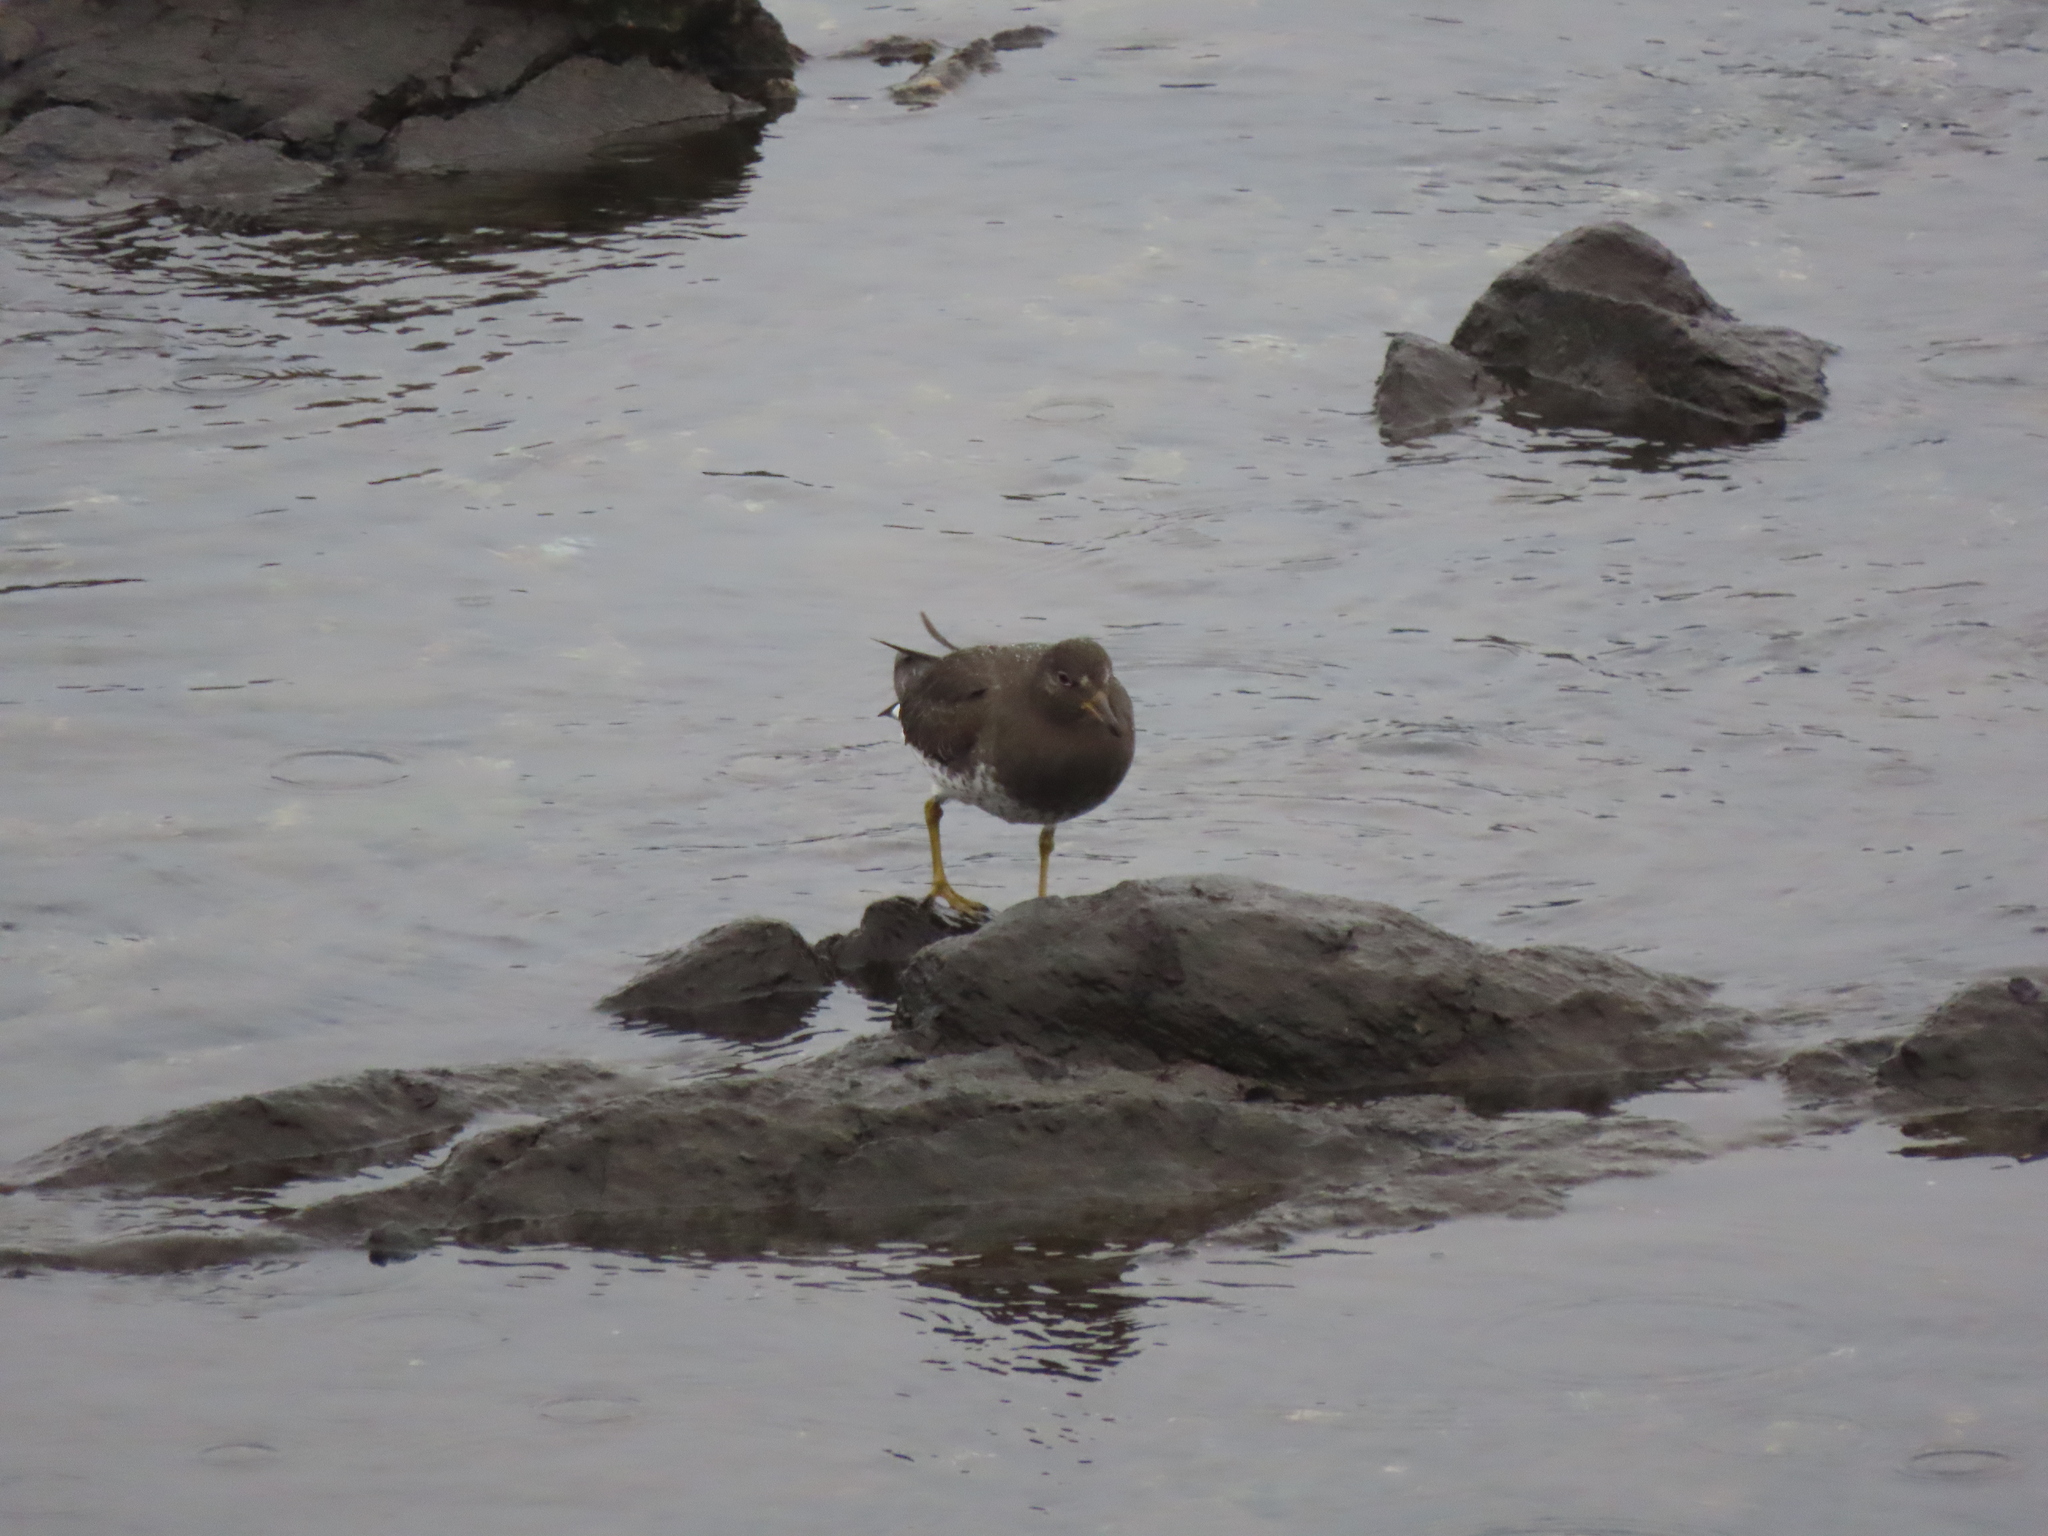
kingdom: Animalia
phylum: Chordata
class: Aves
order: Charadriiformes
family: Scolopacidae
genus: Calidris
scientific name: Calidris virgata
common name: Surfbird
